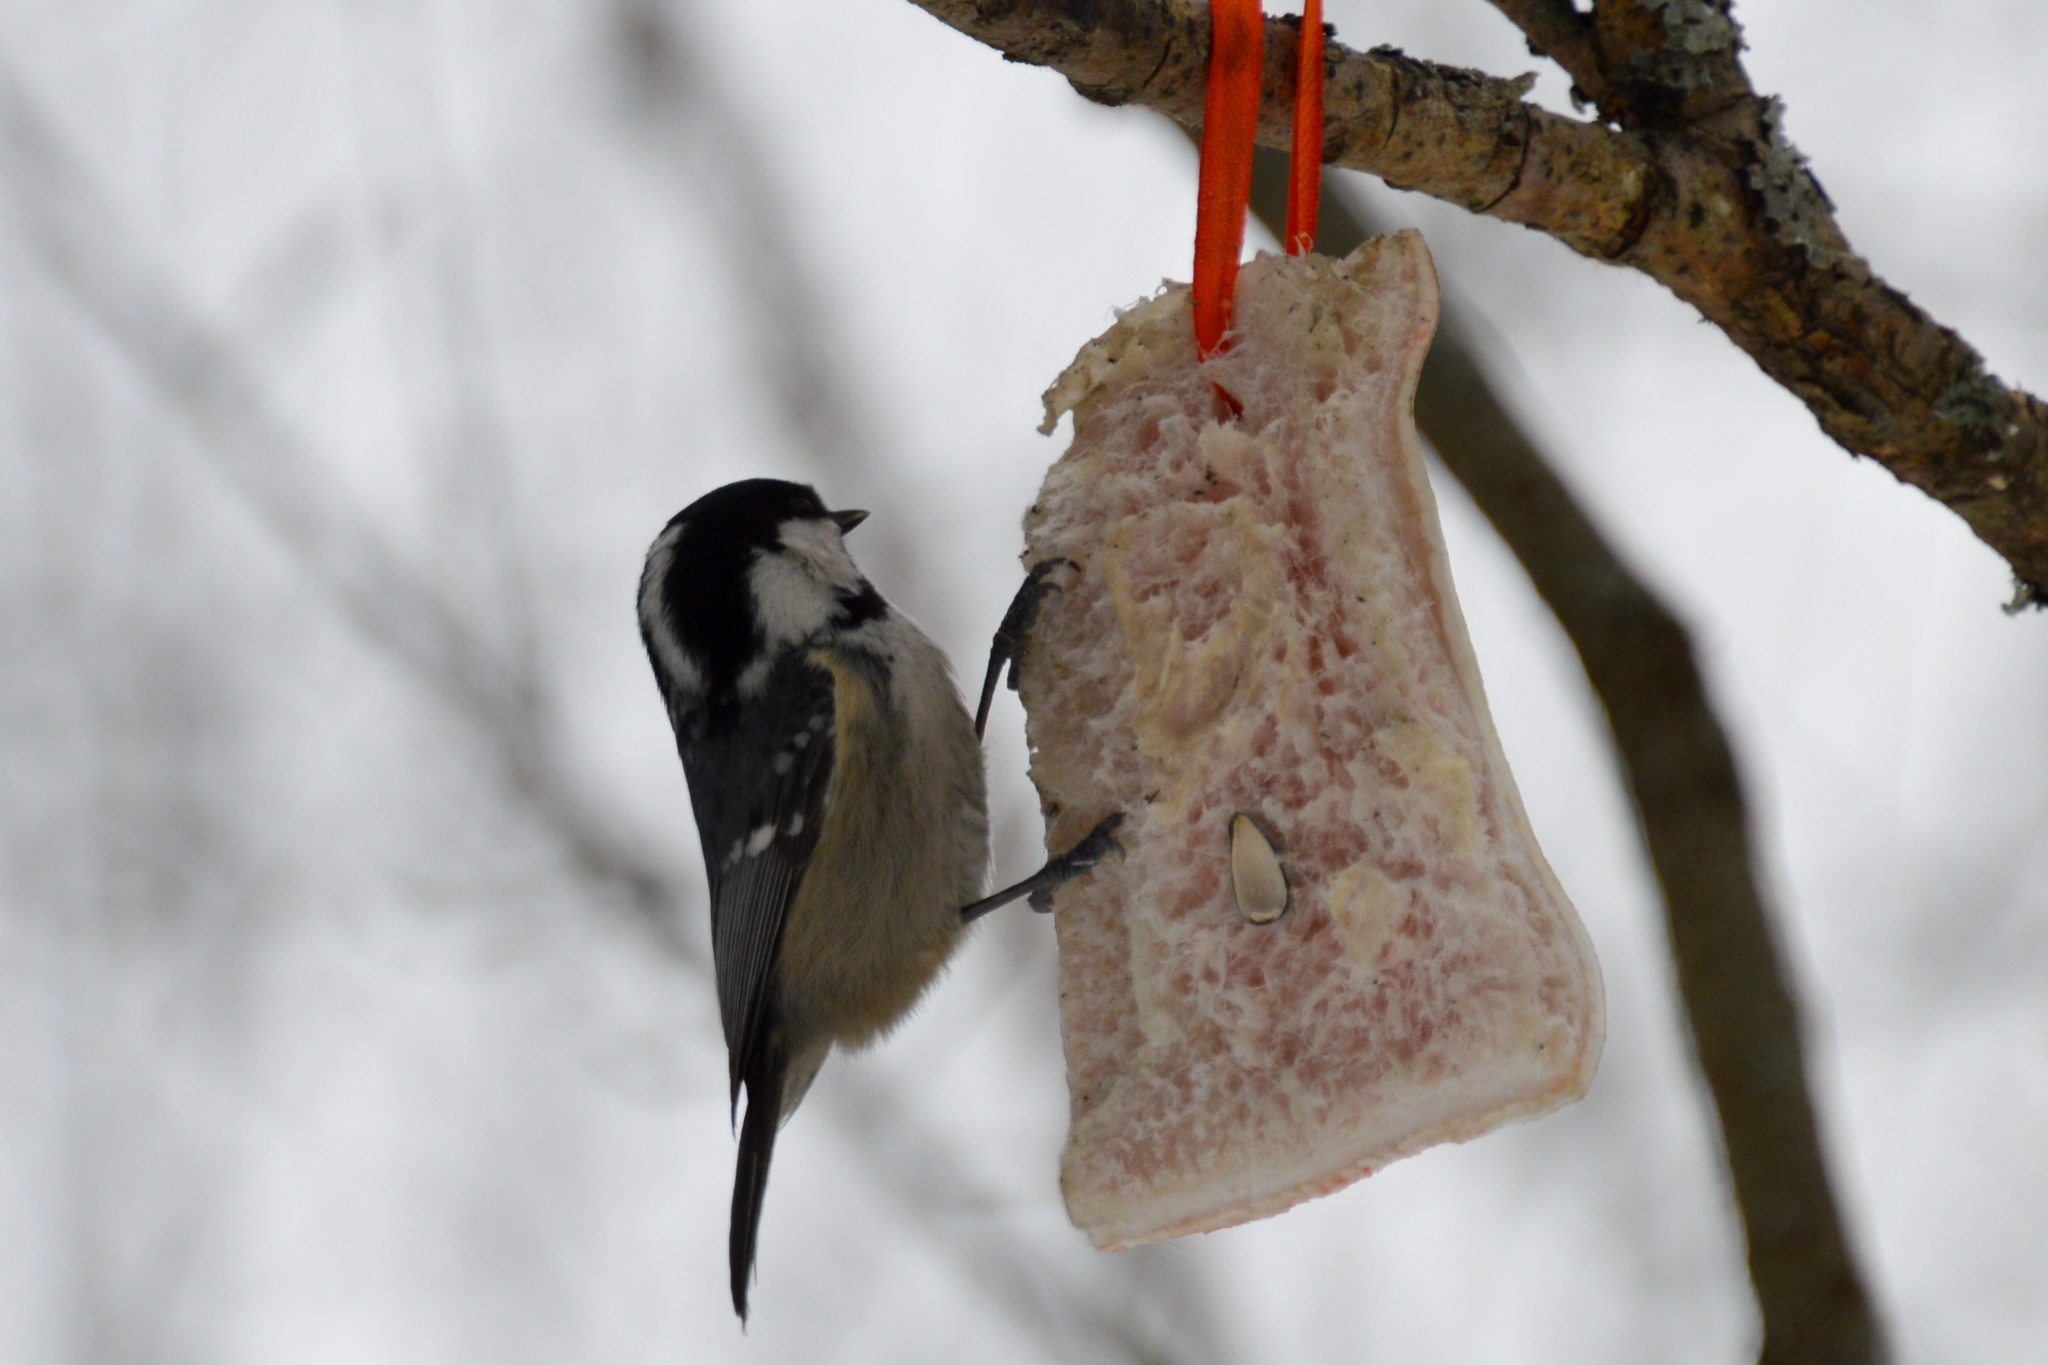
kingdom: Animalia
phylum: Chordata
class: Aves
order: Passeriformes
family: Paridae
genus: Periparus
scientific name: Periparus ater
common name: Coal tit
